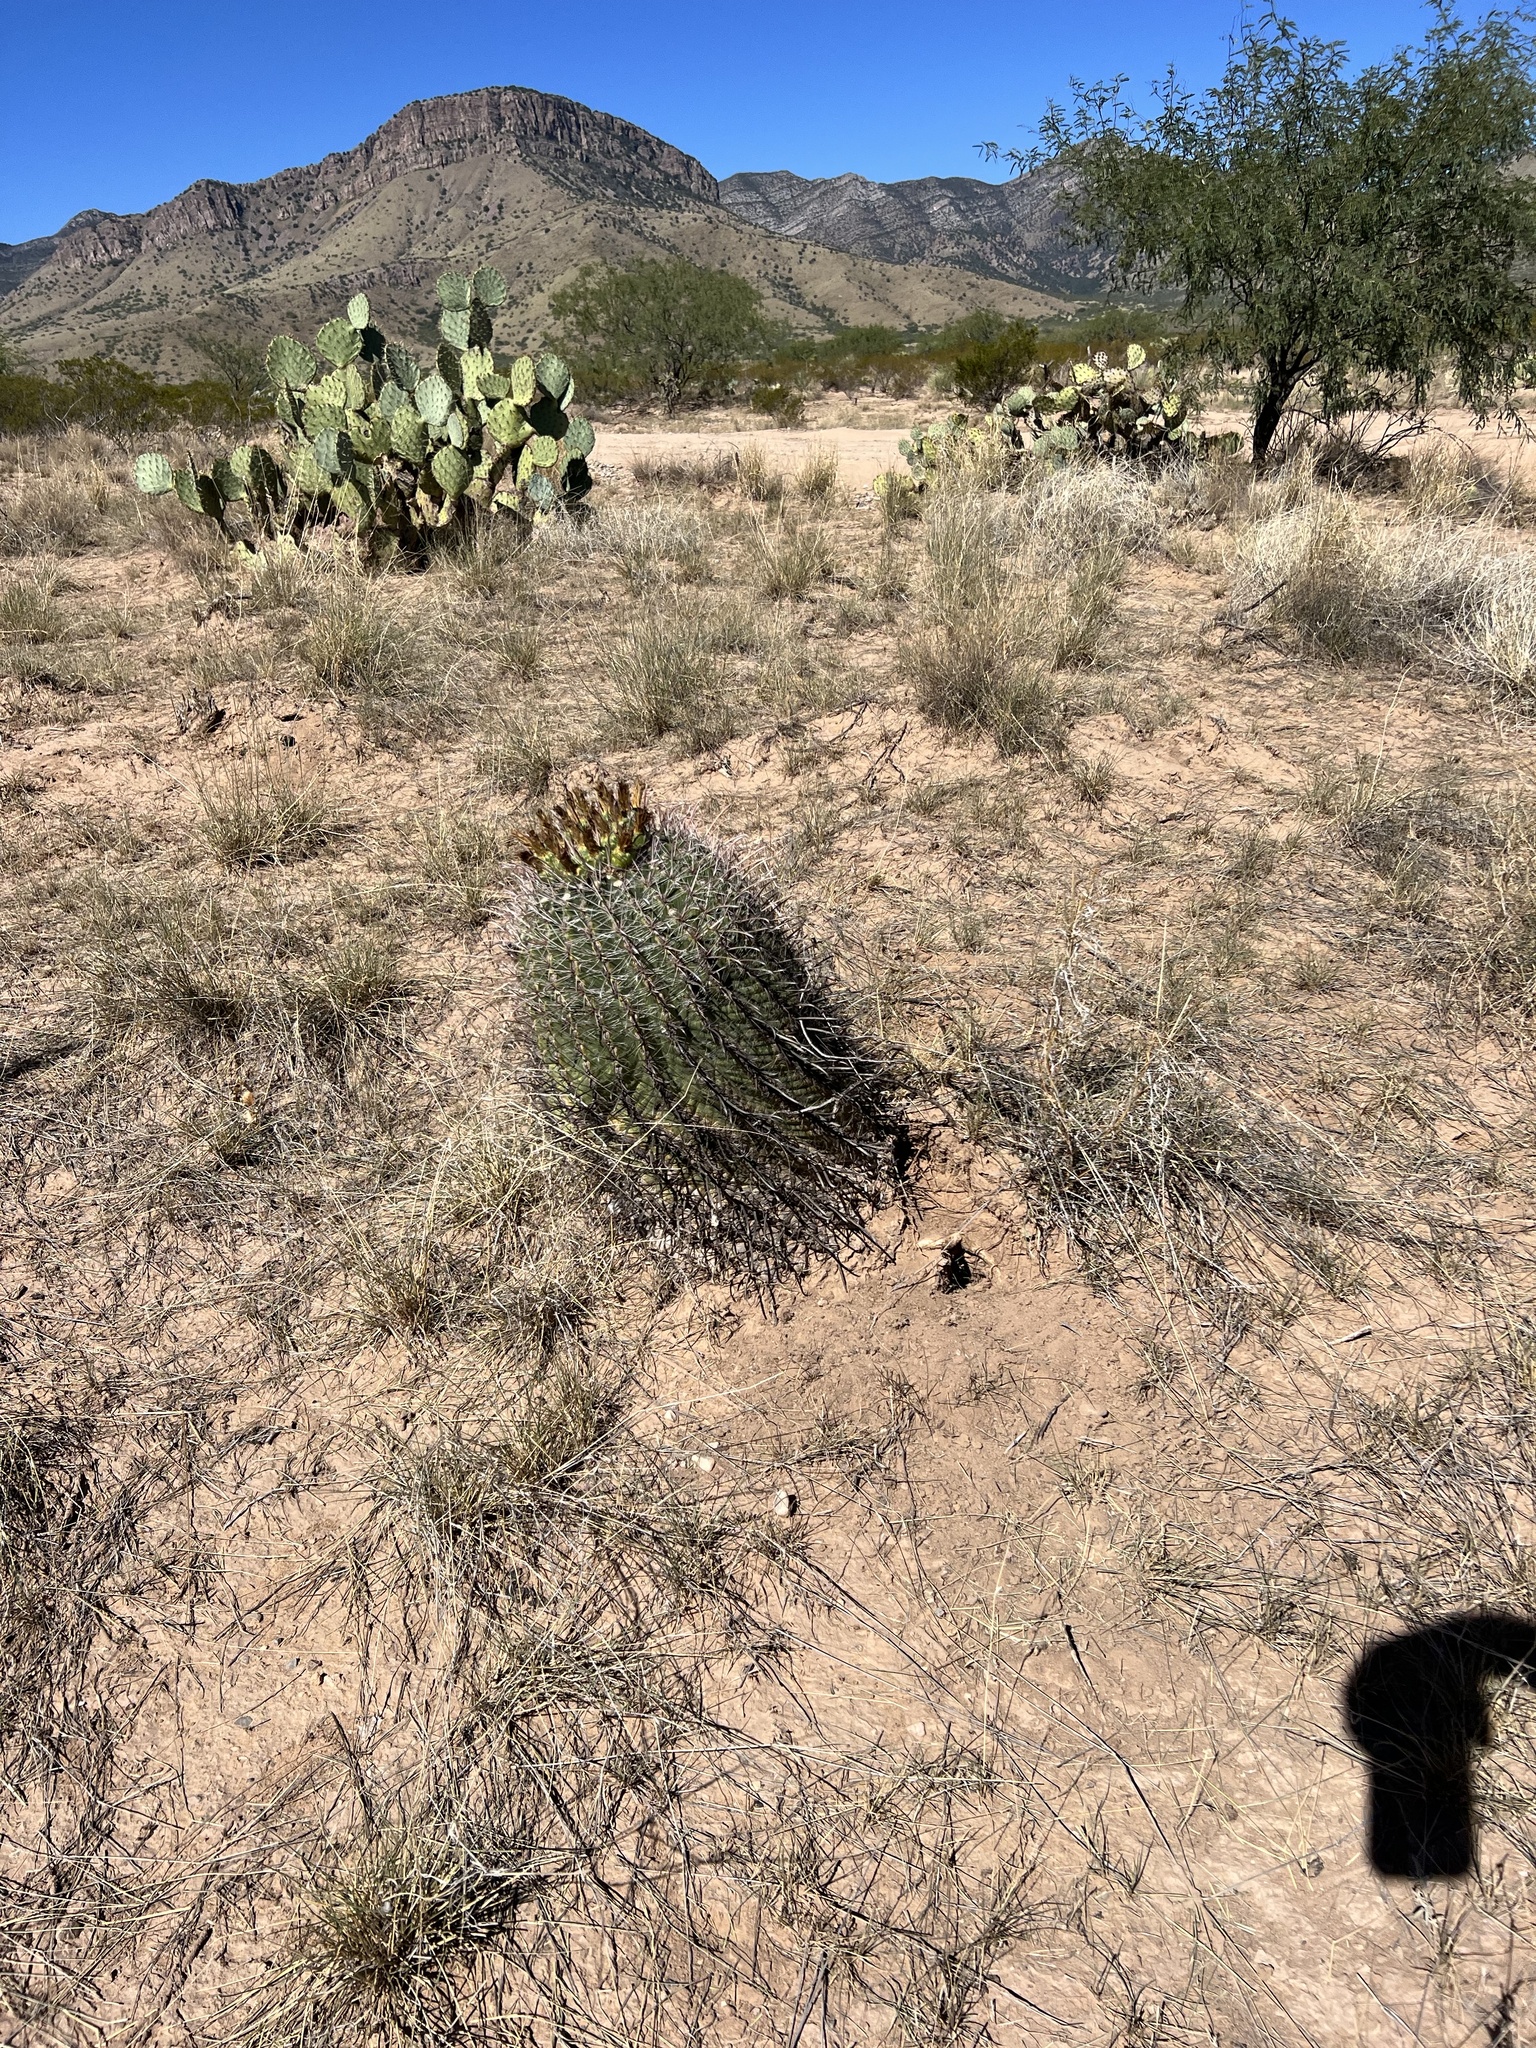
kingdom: Plantae
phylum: Tracheophyta
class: Magnoliopsida
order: Caryophyllales
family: Cactaceae
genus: Ferocactus
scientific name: Ferocactus wislizeni
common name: Candy barrel cactus
